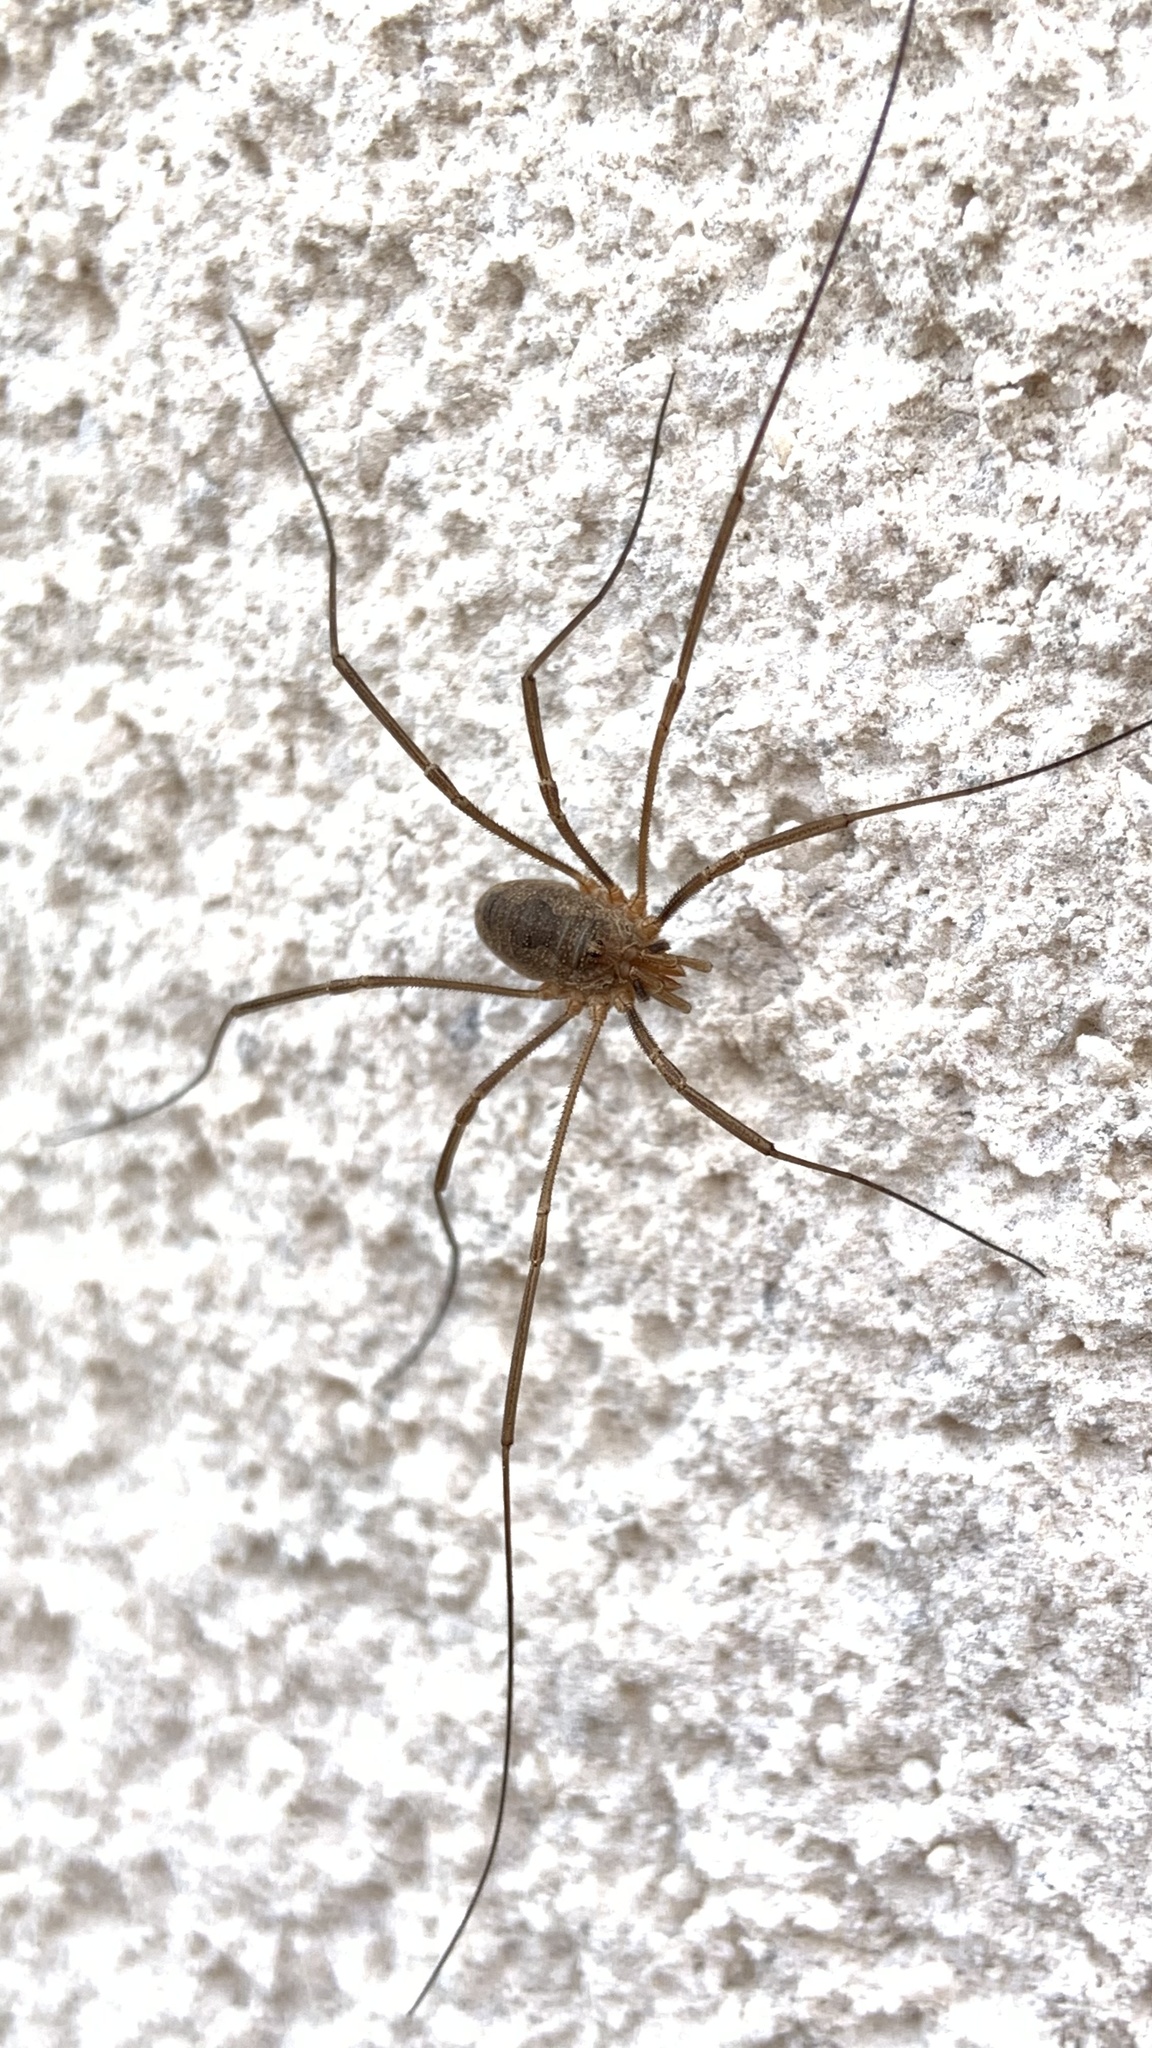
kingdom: Animalia
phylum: Arthropoda
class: Arachnida
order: Opiliones
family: Phalangiidae
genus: Phalangium
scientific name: Phalangium opilio
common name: Daddy longleg
